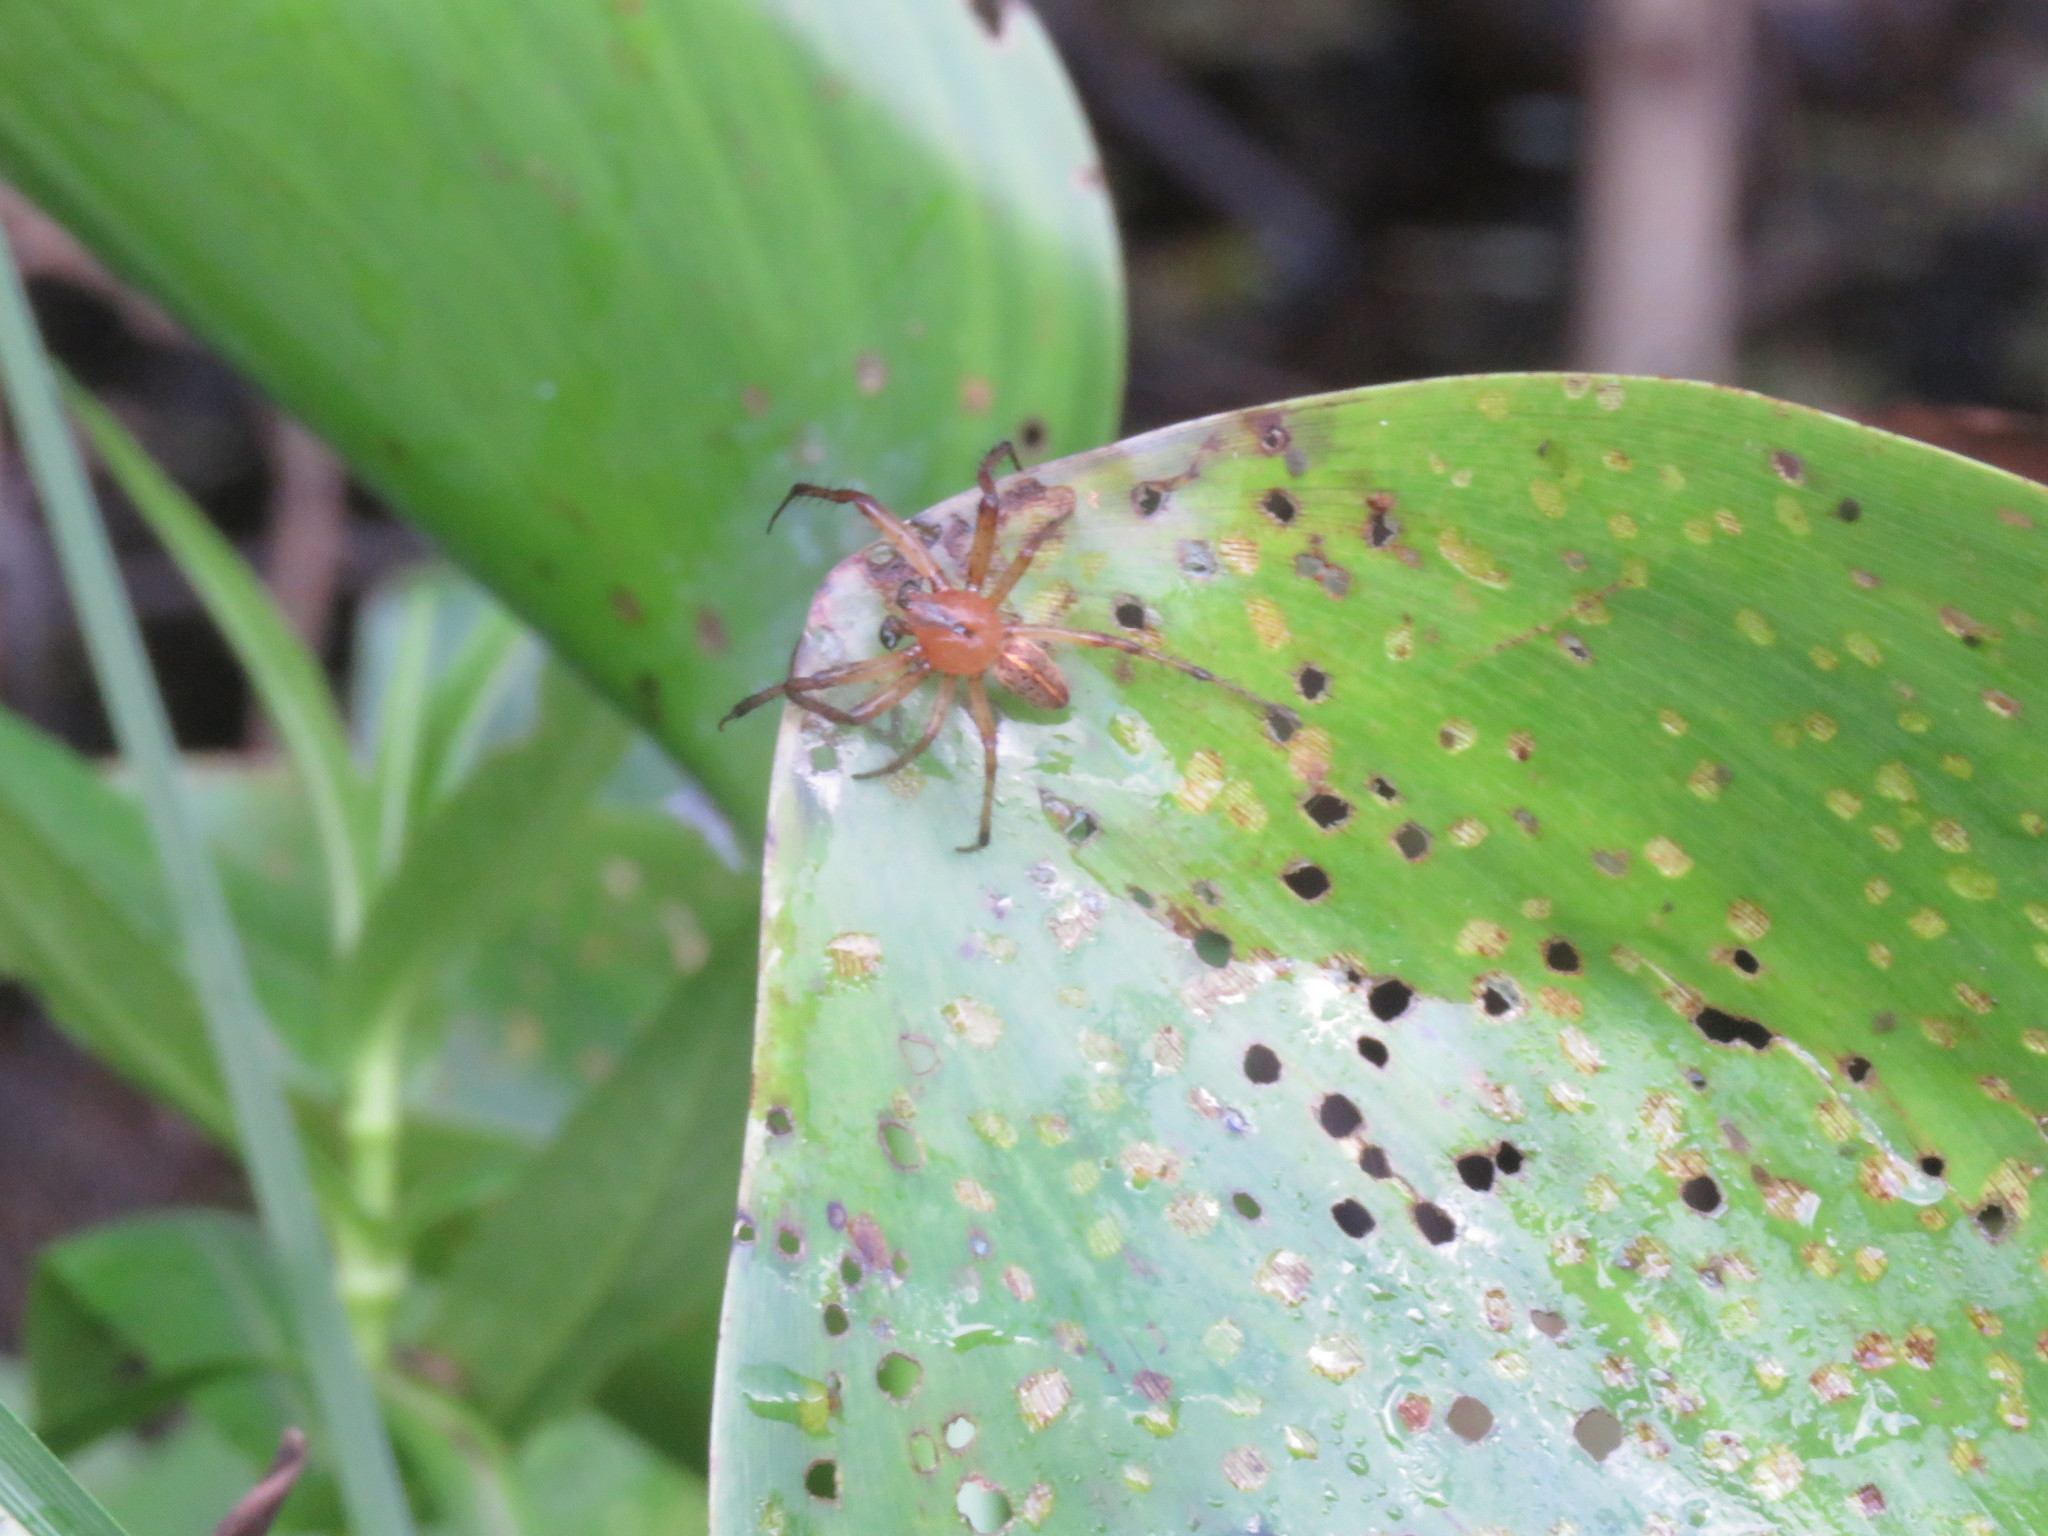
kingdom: Animalia
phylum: Arthropoda
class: Arachnida
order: Araneae
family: Araneidae
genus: Alpaida
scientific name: Alpaida veniliae
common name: Orb weavers
